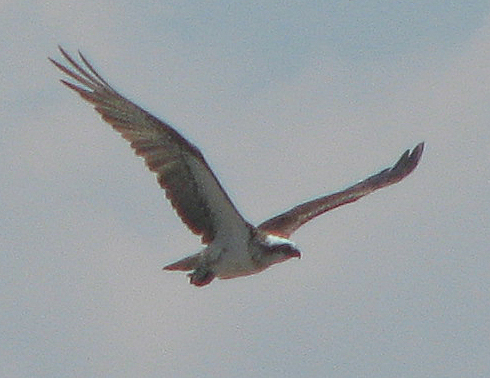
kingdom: Animalia
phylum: Chordata
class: Aves
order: Accipitriformes
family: Pandionidae
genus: Pandion
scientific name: Pandion cristatus
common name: Eastern osprey
